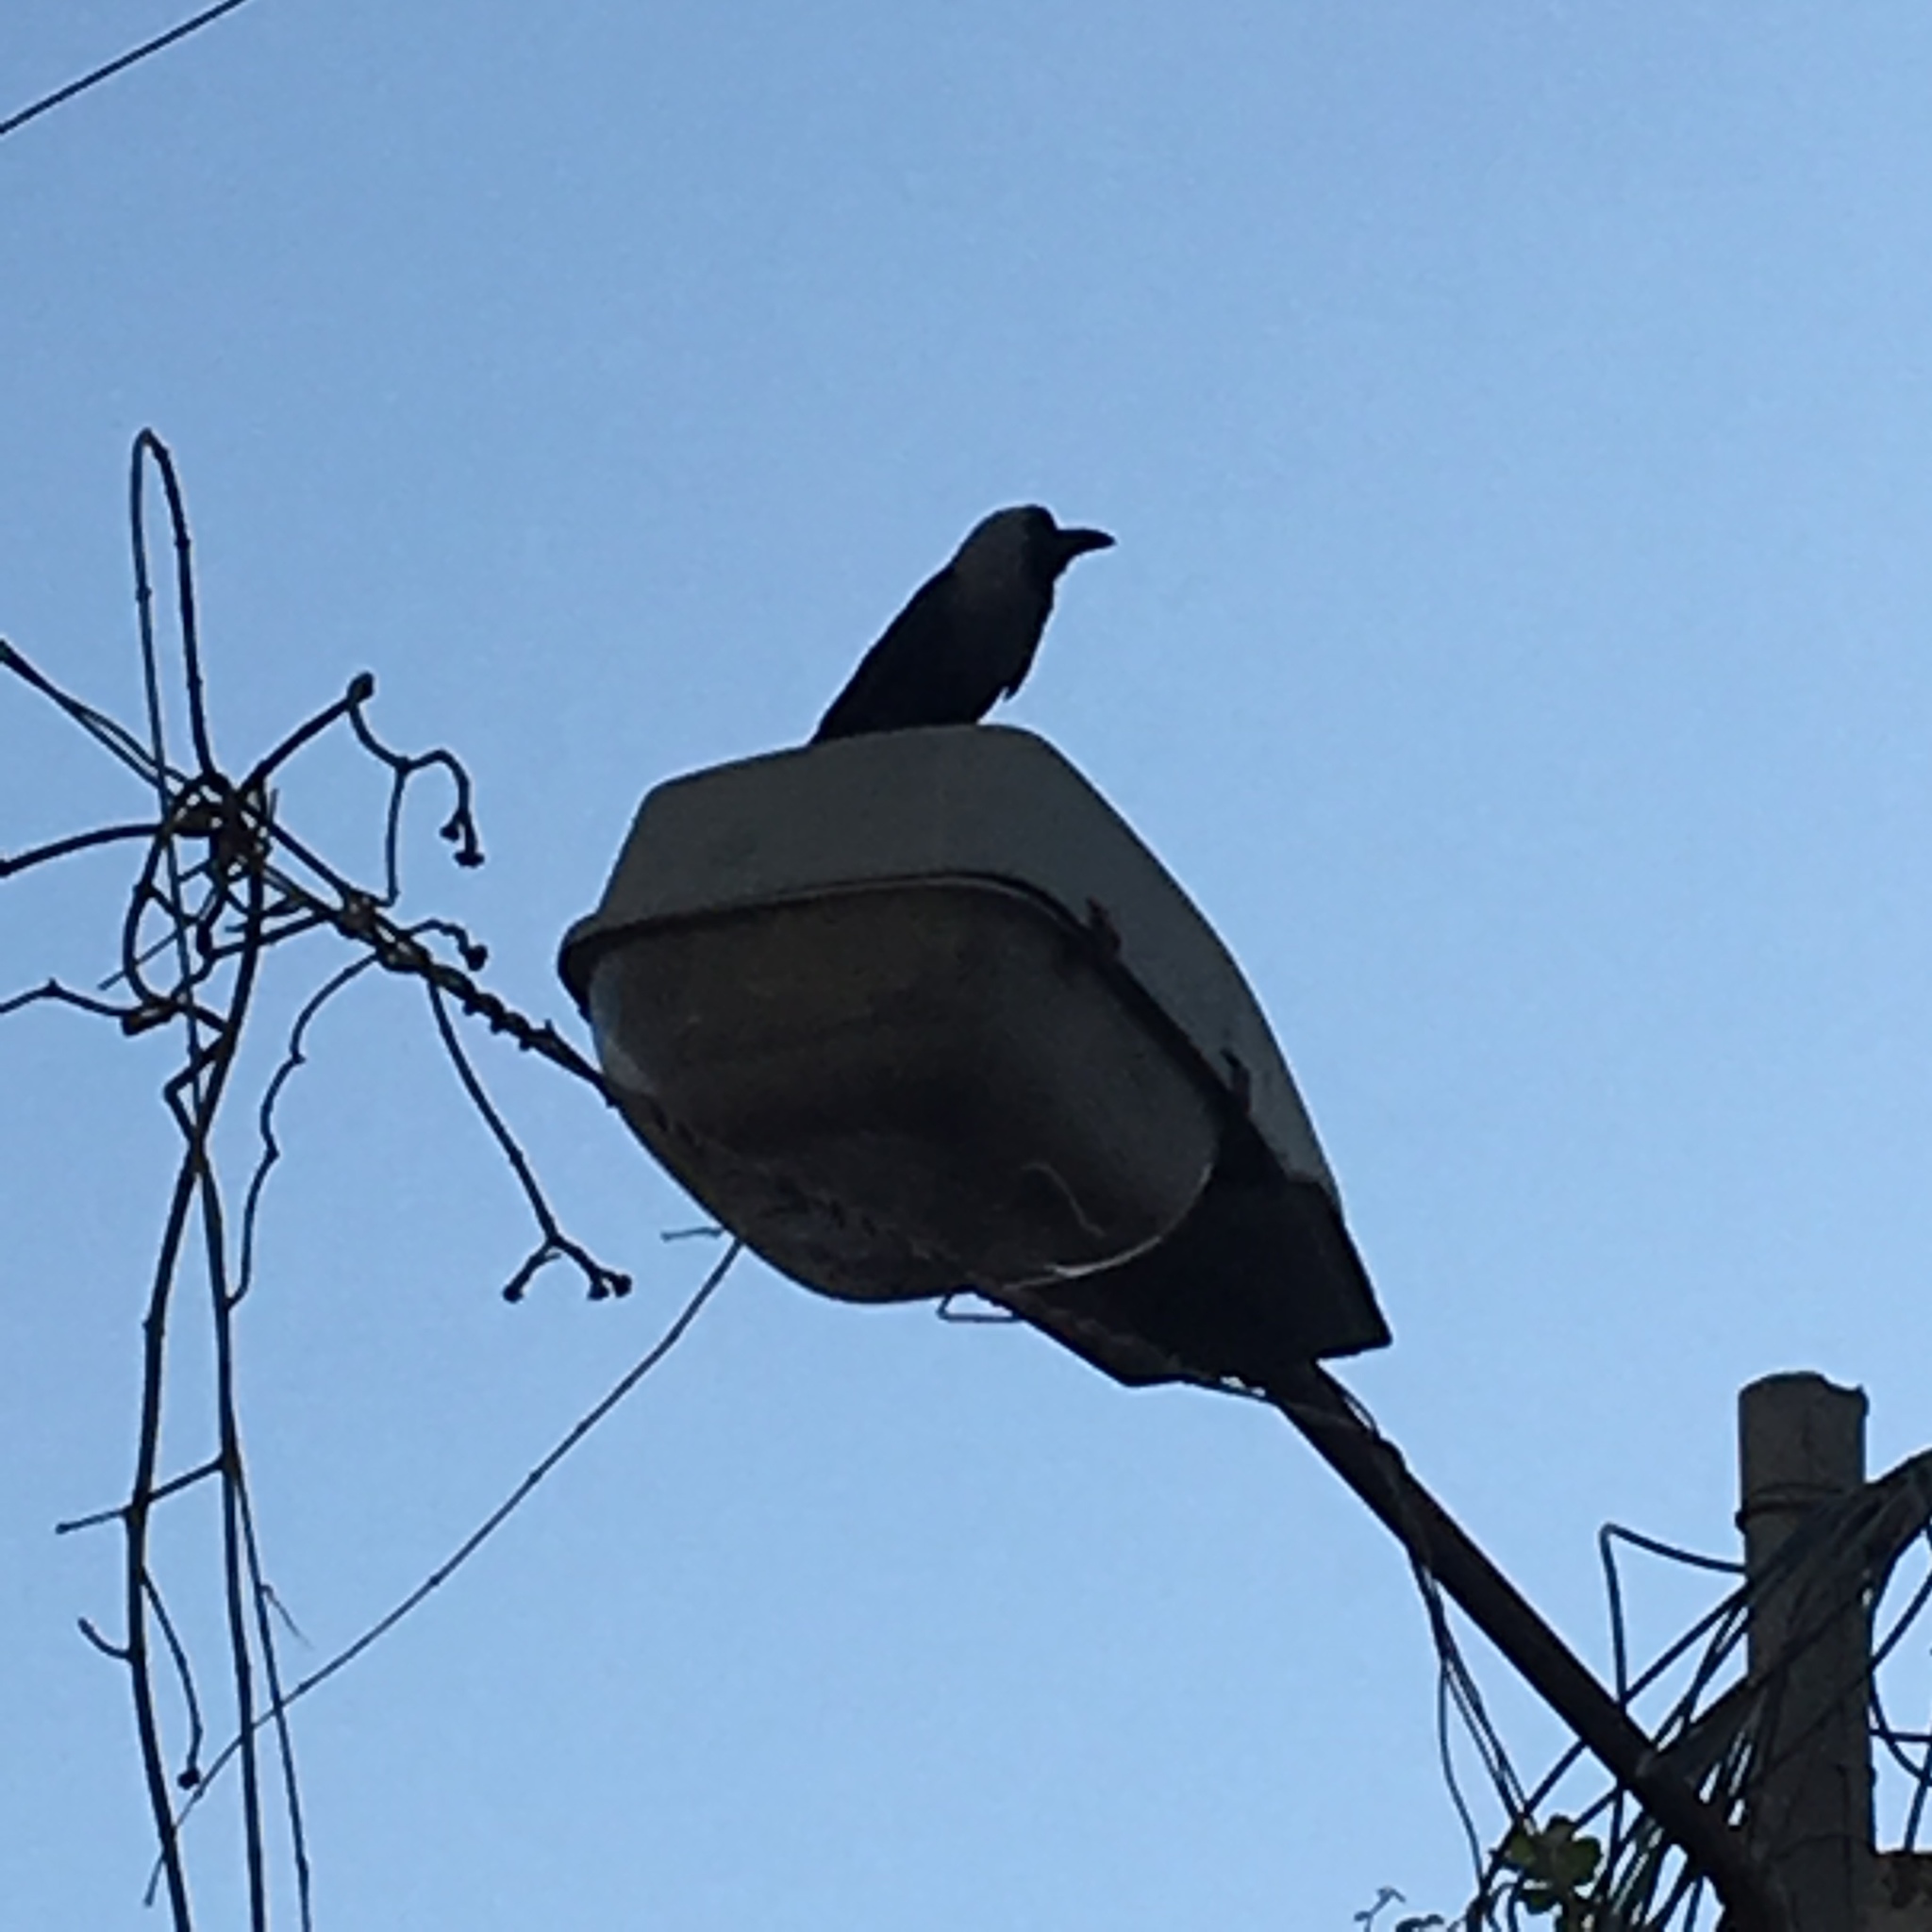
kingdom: Animalia
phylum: Chordata
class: Aves
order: Passeriformes
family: Corvidae
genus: Corvus
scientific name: Corvus splendens
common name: House crow
